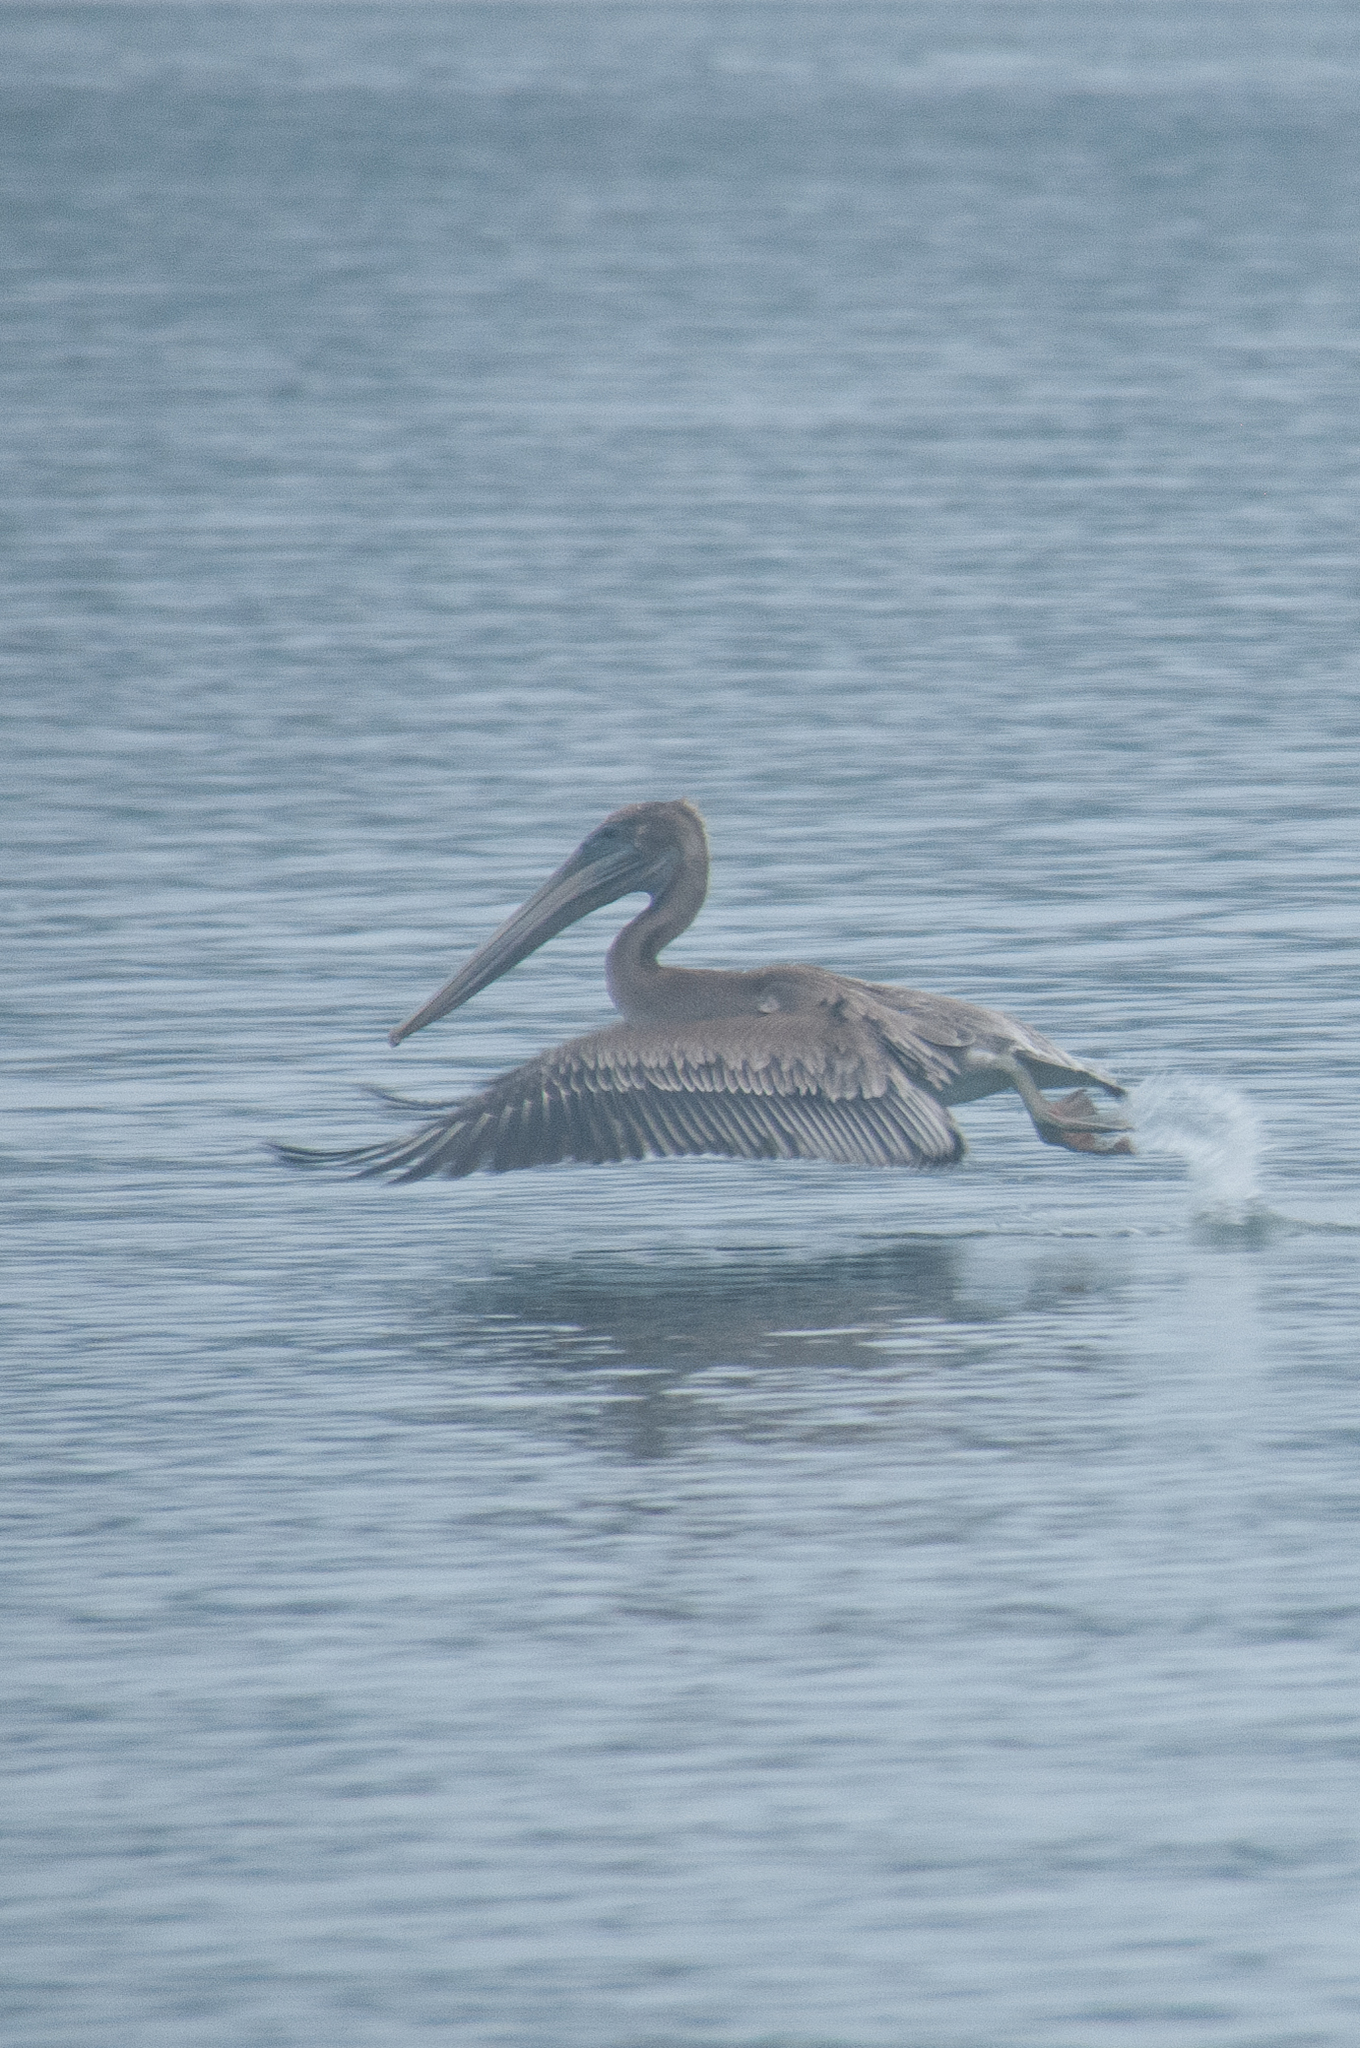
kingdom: Animalia
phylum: Chordata
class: Aves
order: Pelecaniformes
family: Pelecanidae
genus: Pelecanus
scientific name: Pelecanus occidentalis
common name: Brown pelican
